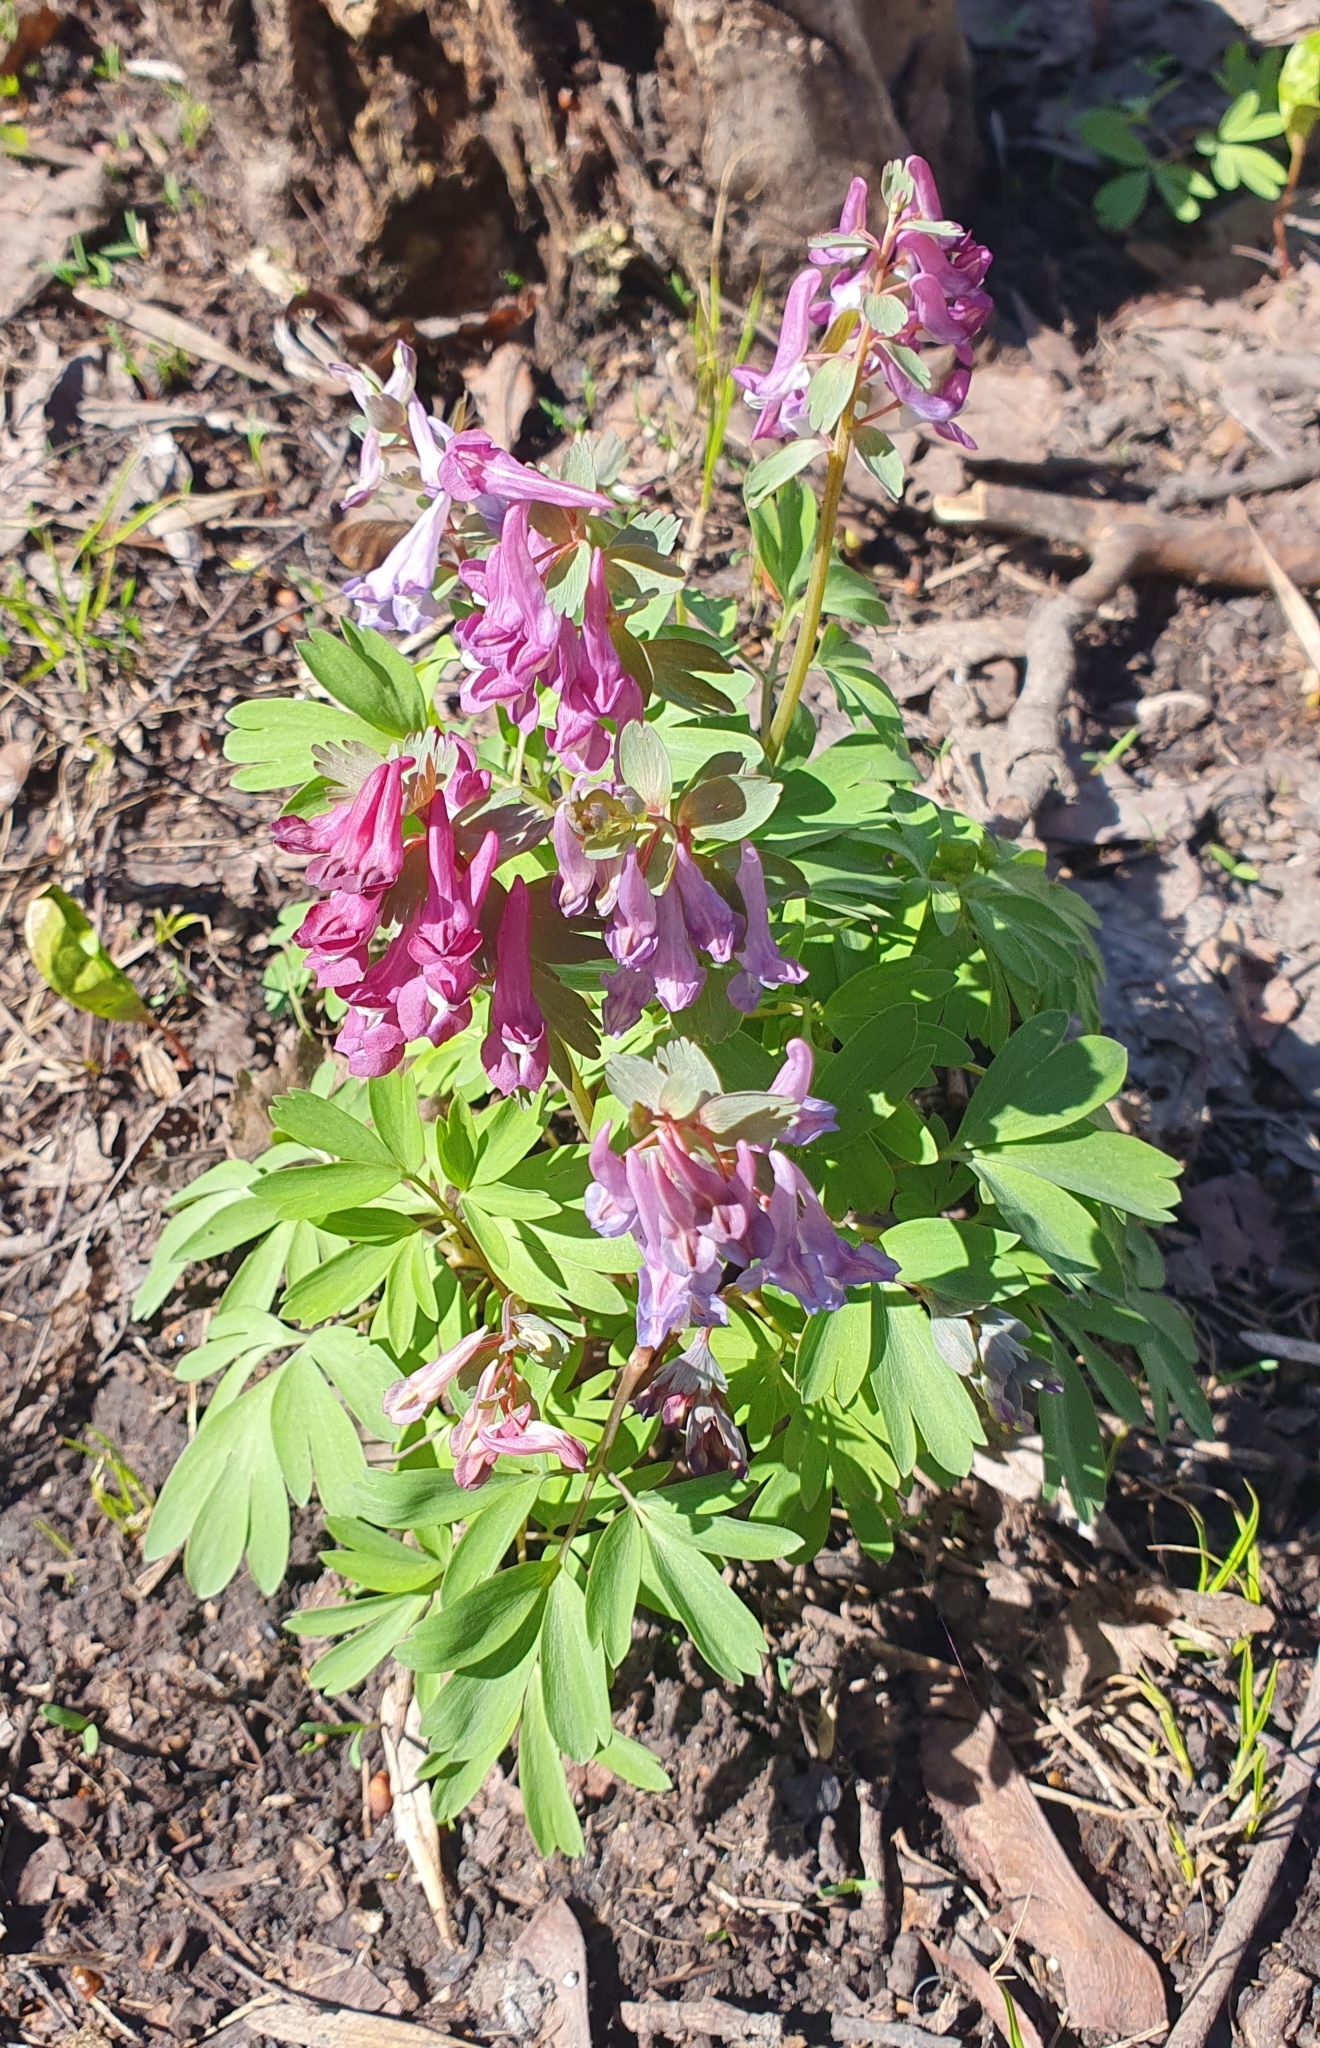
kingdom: Plantae
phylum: Tracheophyta
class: Magnoliopsida
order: Ranunculales
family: Papaveraceae
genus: Corydalis
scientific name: Corydalis solida
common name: Bird-in-a-bush
